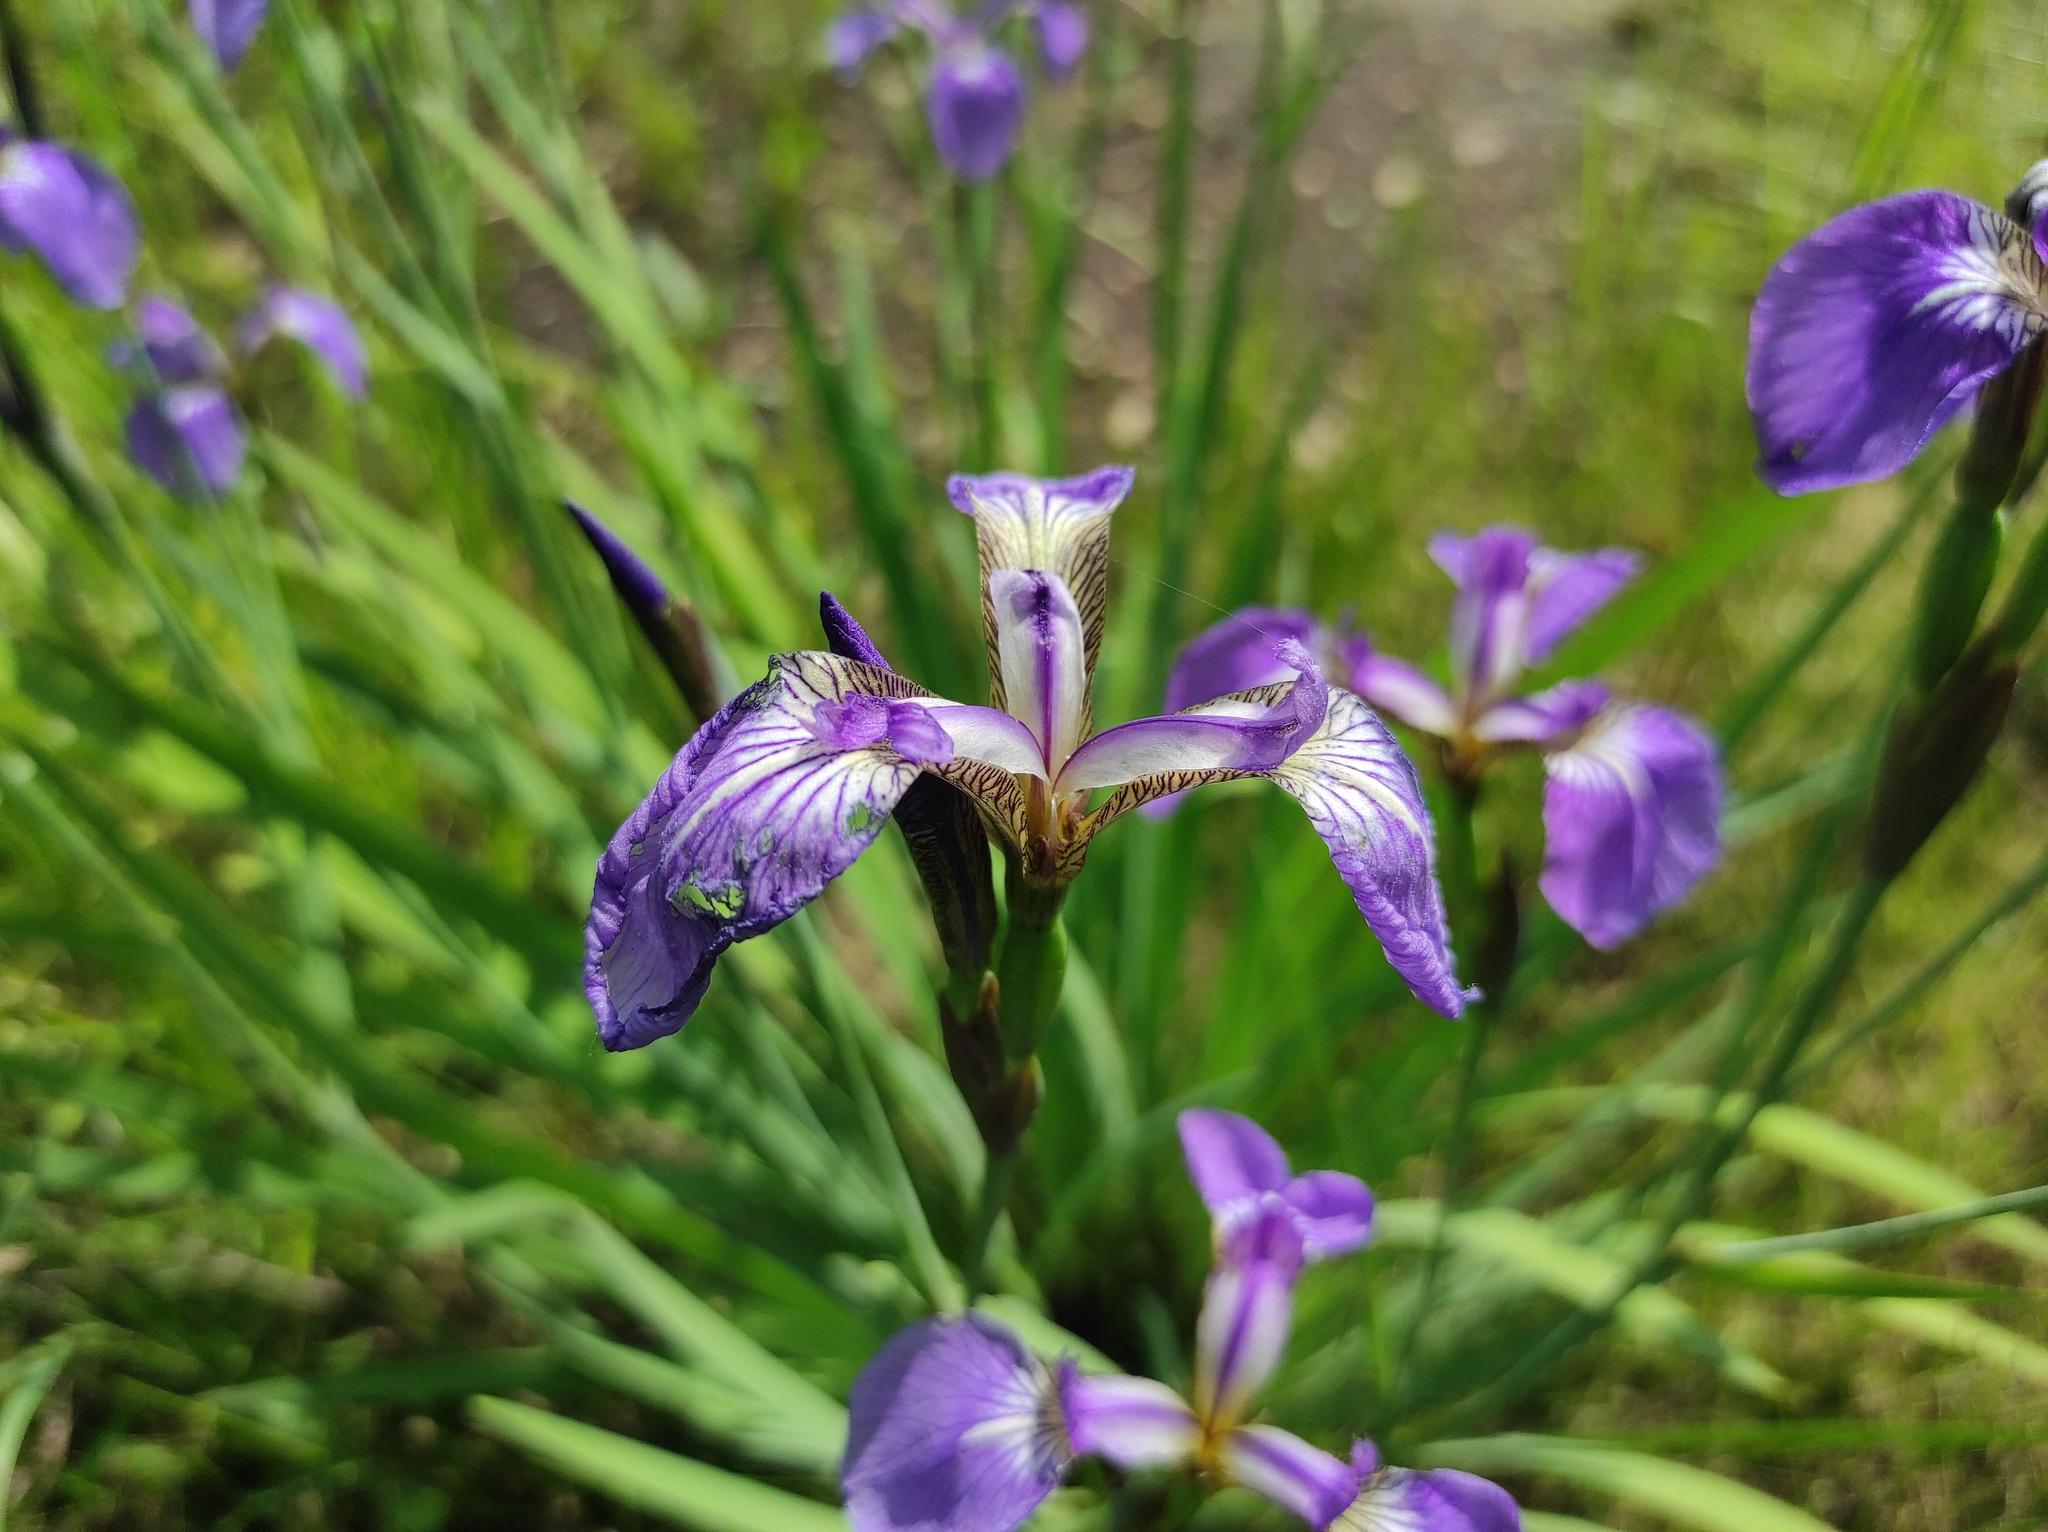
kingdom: Plantae
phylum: Tracheophyta
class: Liliopsida
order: Asparagales
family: Iridaceae
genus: Iris
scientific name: Iris setosa
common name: Arctic blue flag
